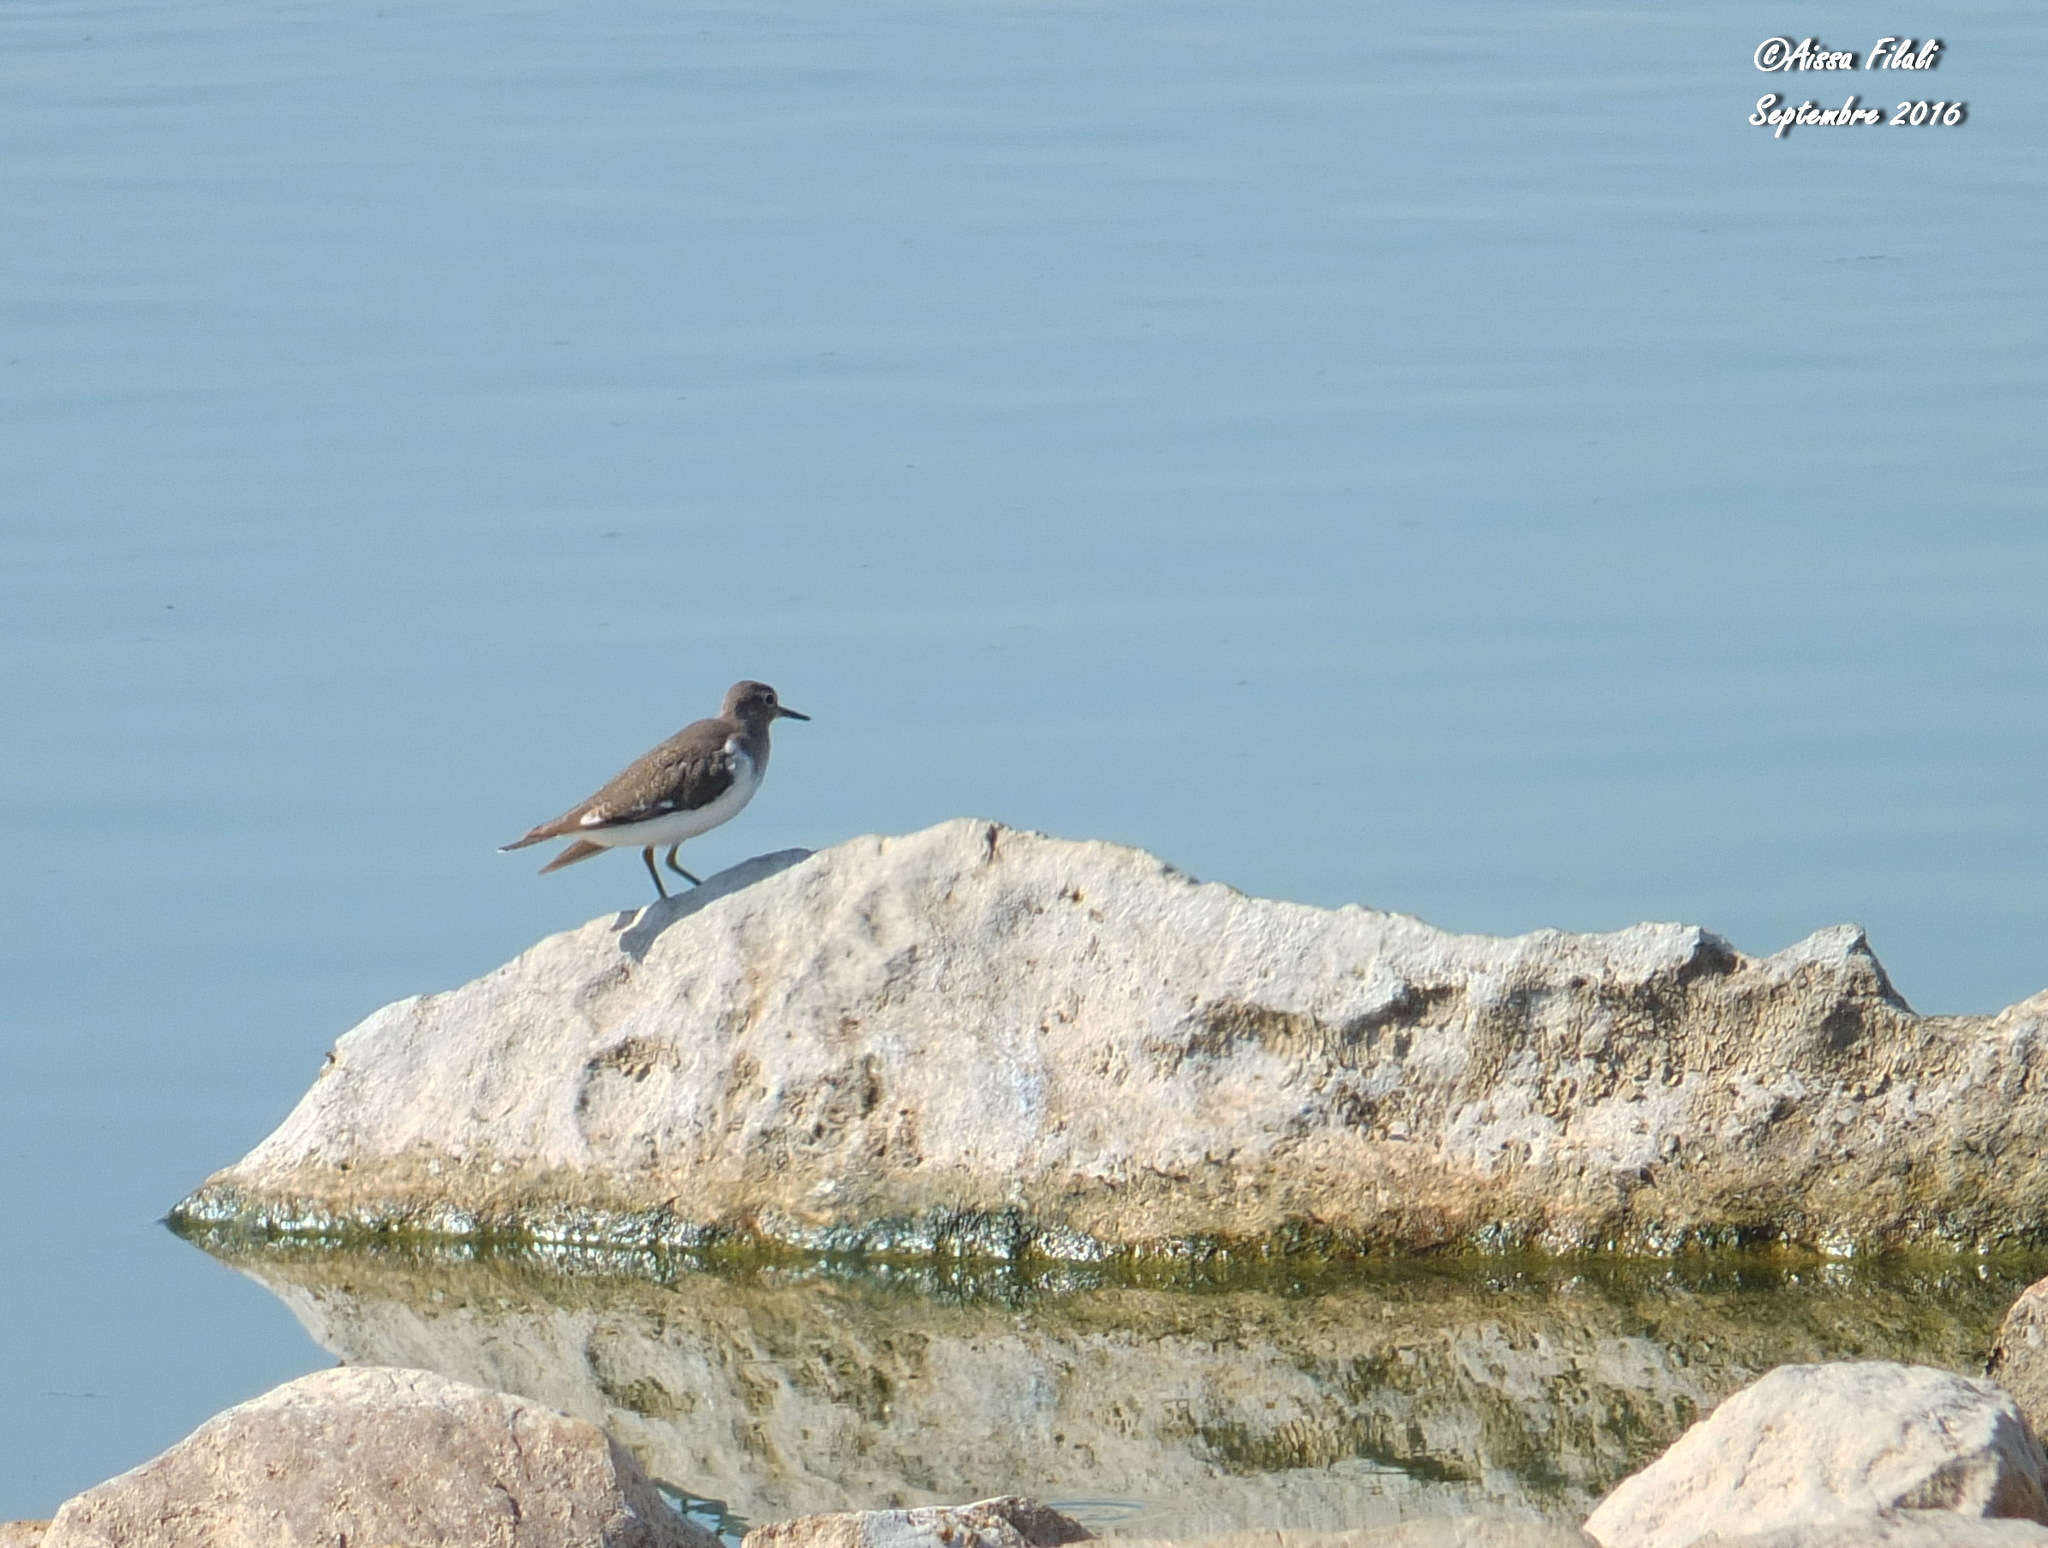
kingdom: Animalia
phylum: Chordata
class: Aves
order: Charadriiformes
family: Scolopacidae
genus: Actitis
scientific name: Actitis hypoleucos
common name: Common sandpiper
